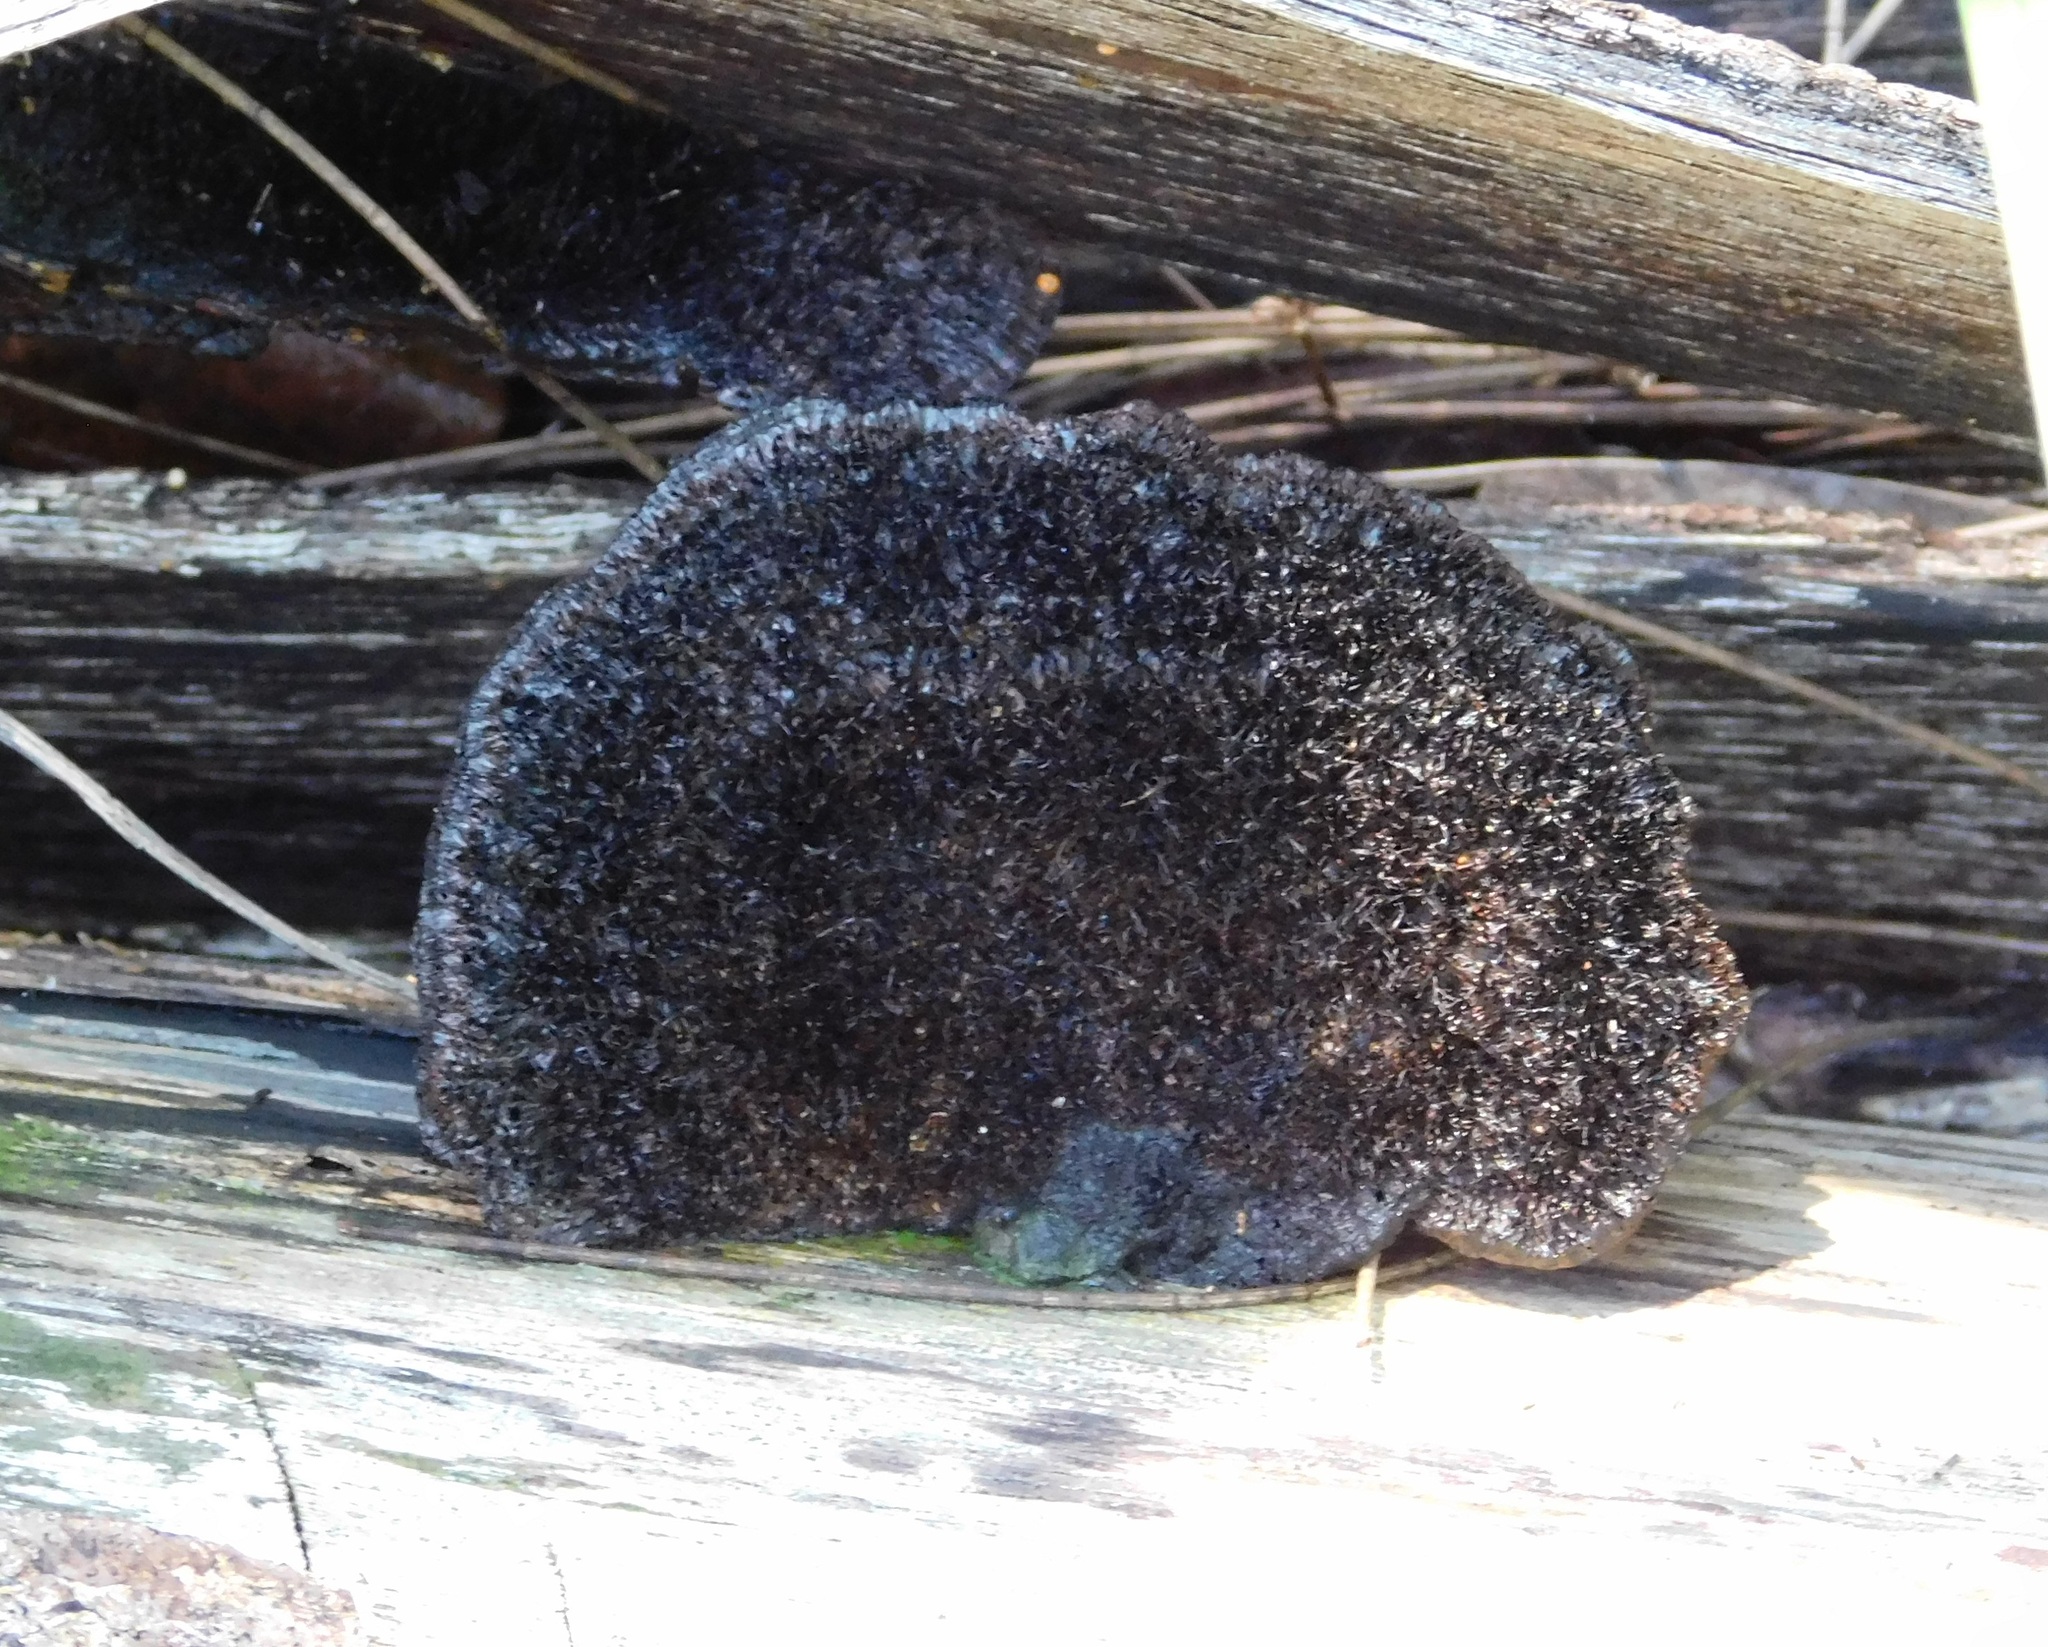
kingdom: Fungi
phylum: Basidiomycota
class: Agaricomycetes
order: Polyporales
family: Cerrenaceae
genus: Cerrena
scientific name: Cerrena hydnoides
